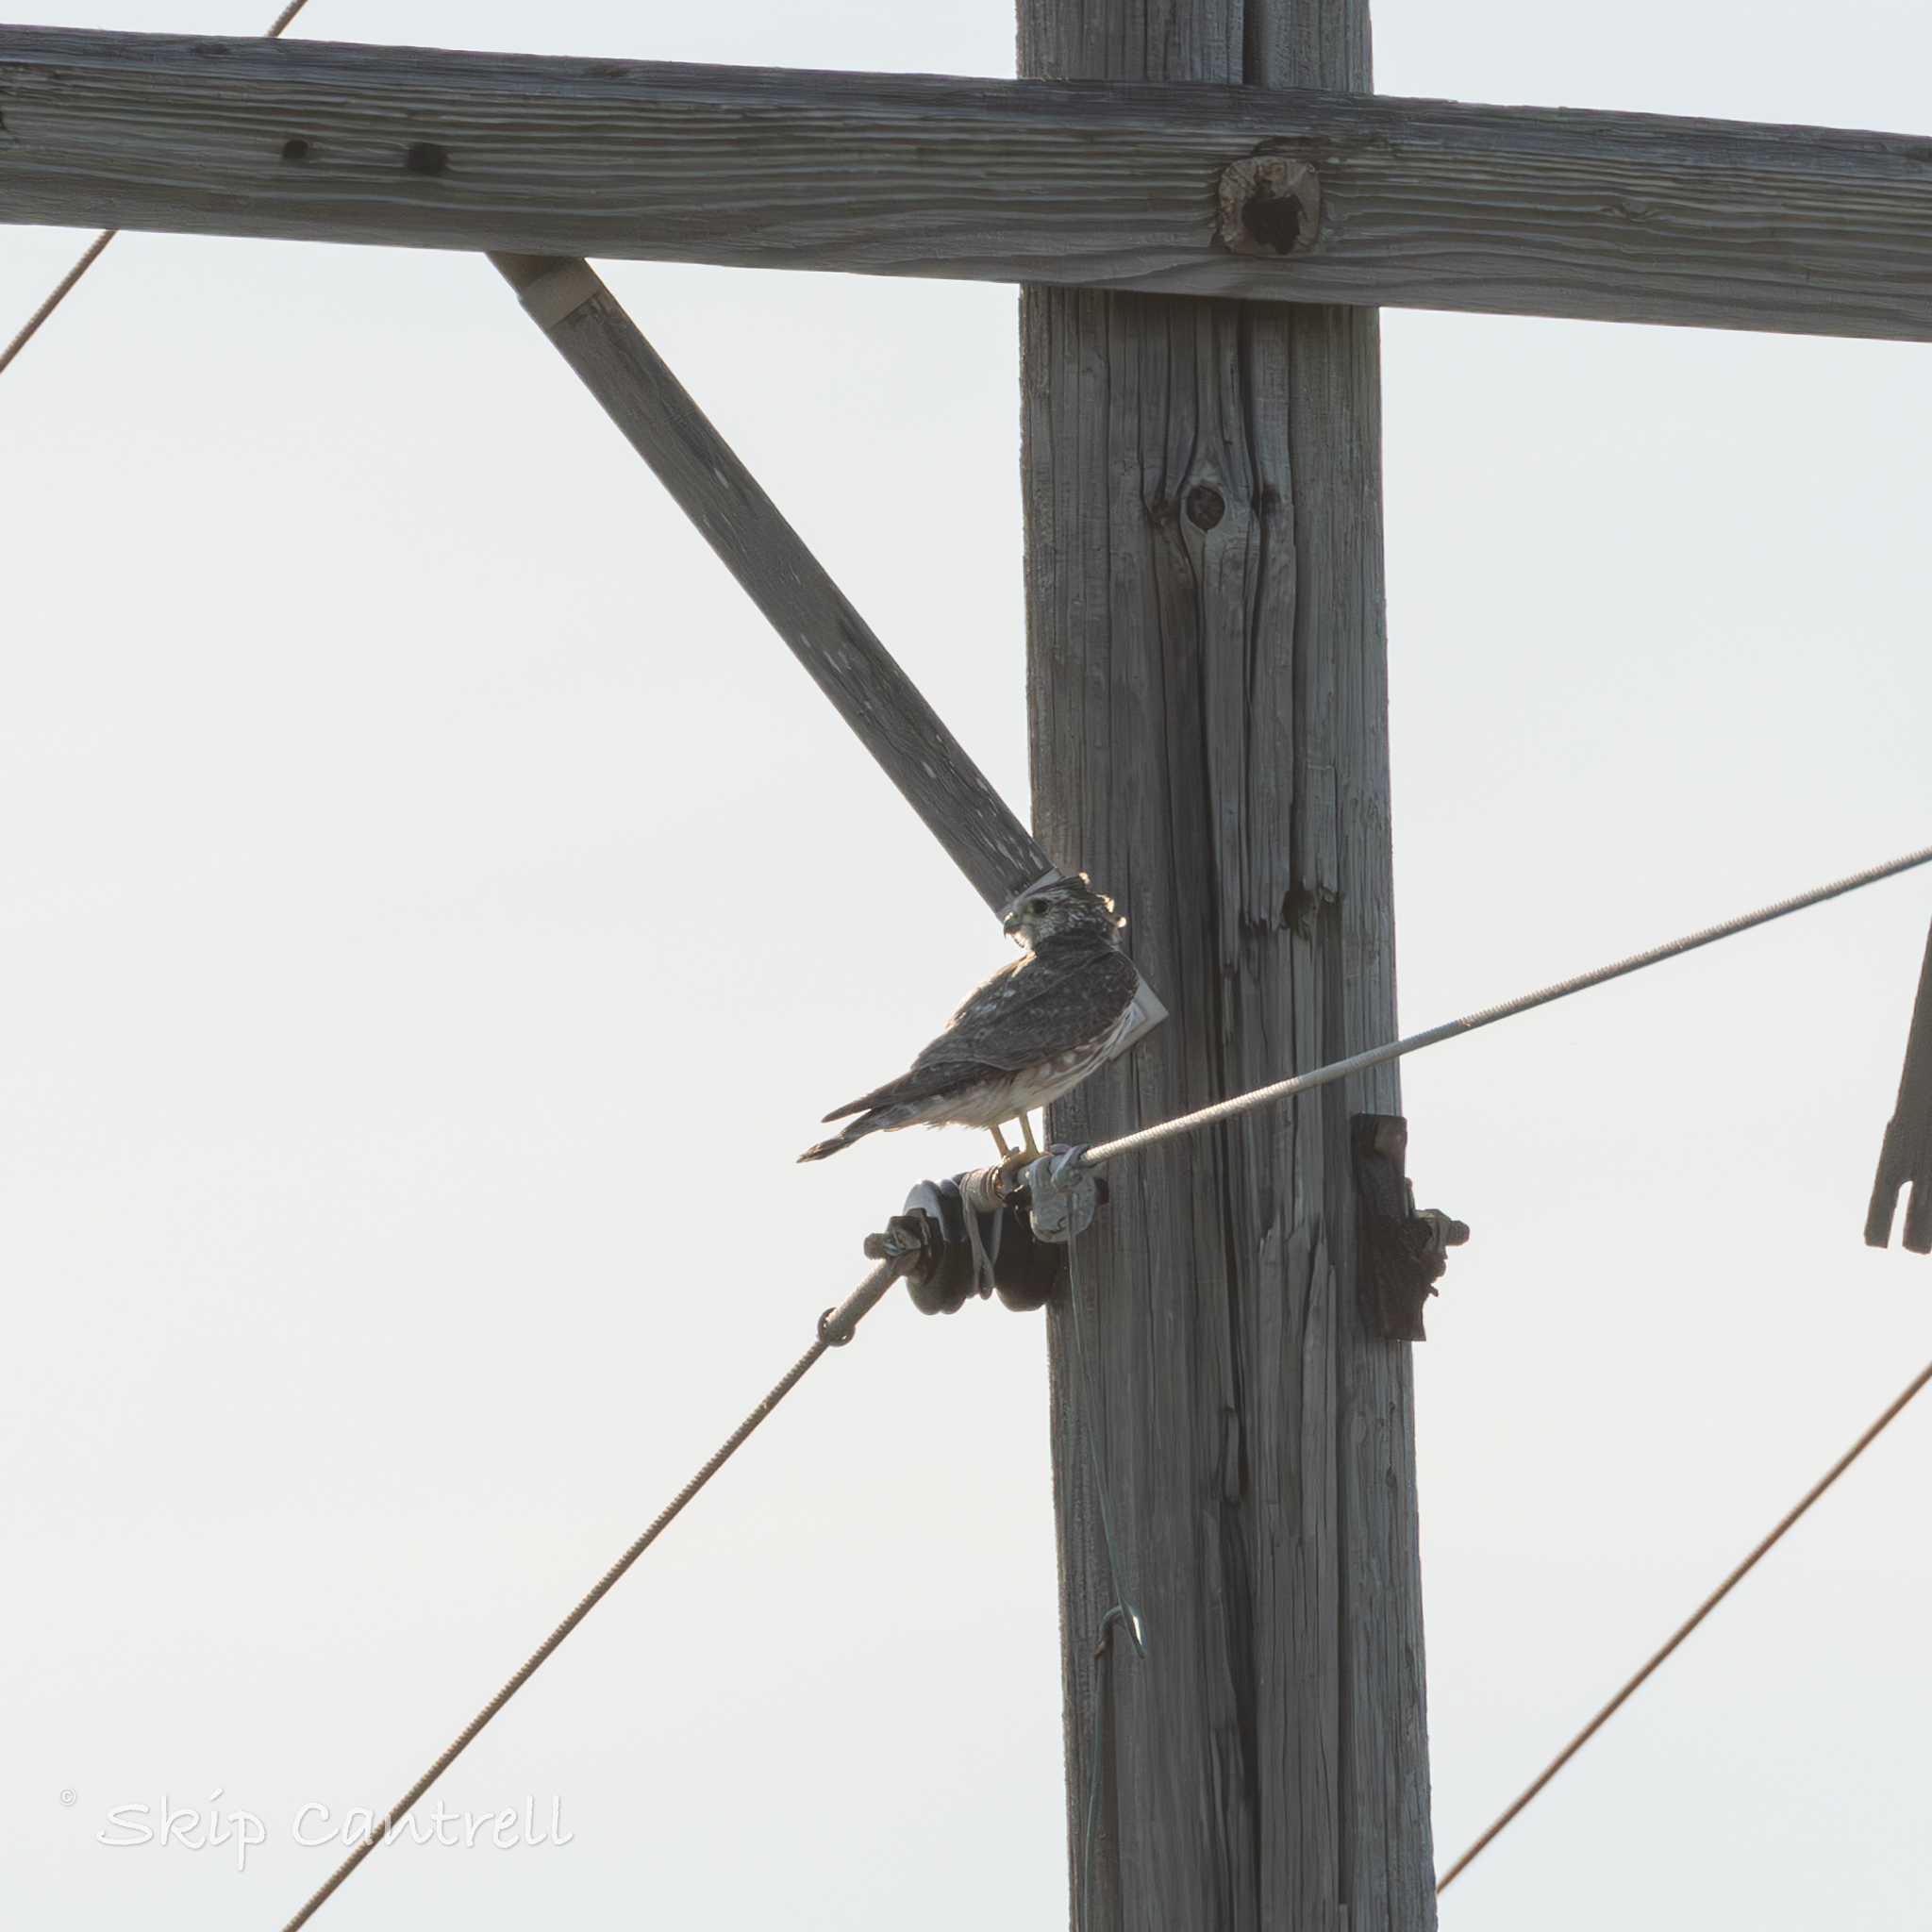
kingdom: Animalia
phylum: Chordata
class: Aves
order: Falconiformes
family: Falconidae
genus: Falco
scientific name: Falco columbarius
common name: Merlin
